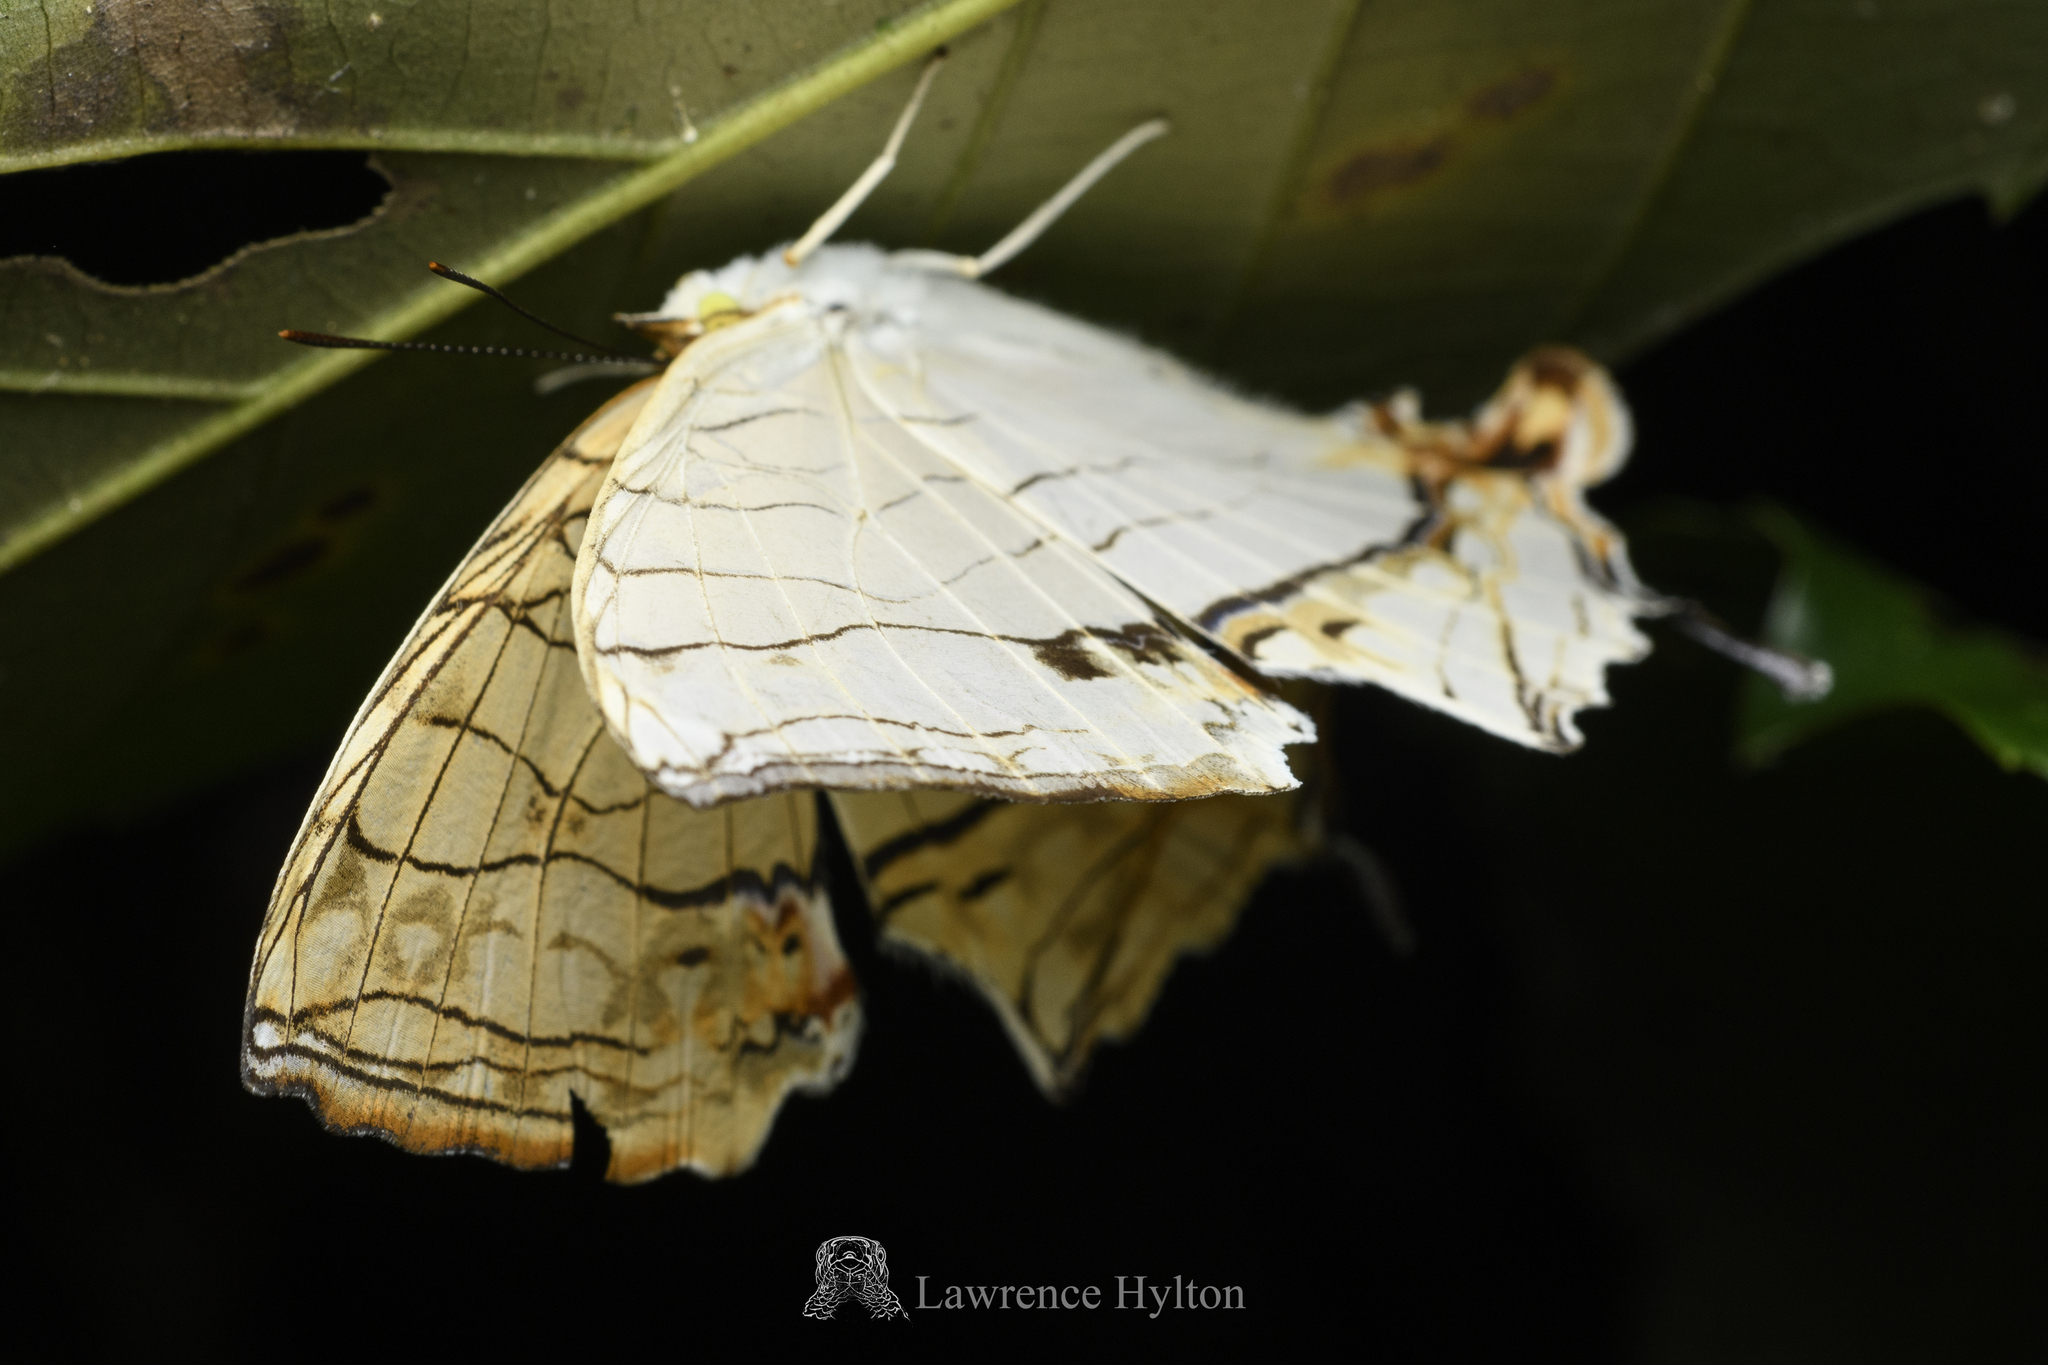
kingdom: Animalia
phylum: Arthropoda
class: Insecta
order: Lepidoptera
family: Nymphalidae
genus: Cyrestis
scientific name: Cyrestis thyodamas
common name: Common mapwing
